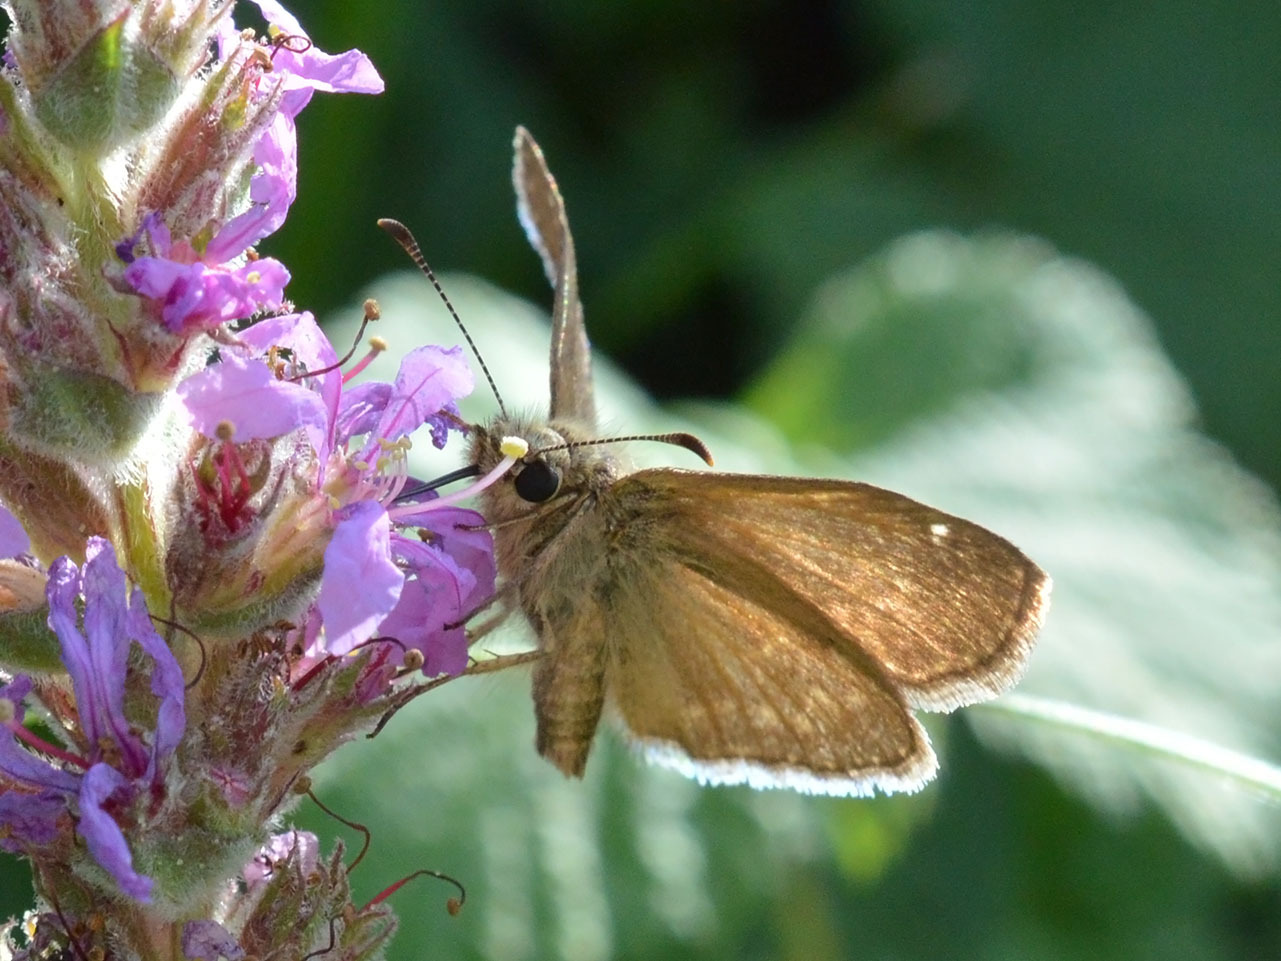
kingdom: Animalia
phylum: Arthropoda
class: Insecta
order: Lepidoptera
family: Hesperiidae
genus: Erynnis
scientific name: Erynnis tages
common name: Dingy skipper
